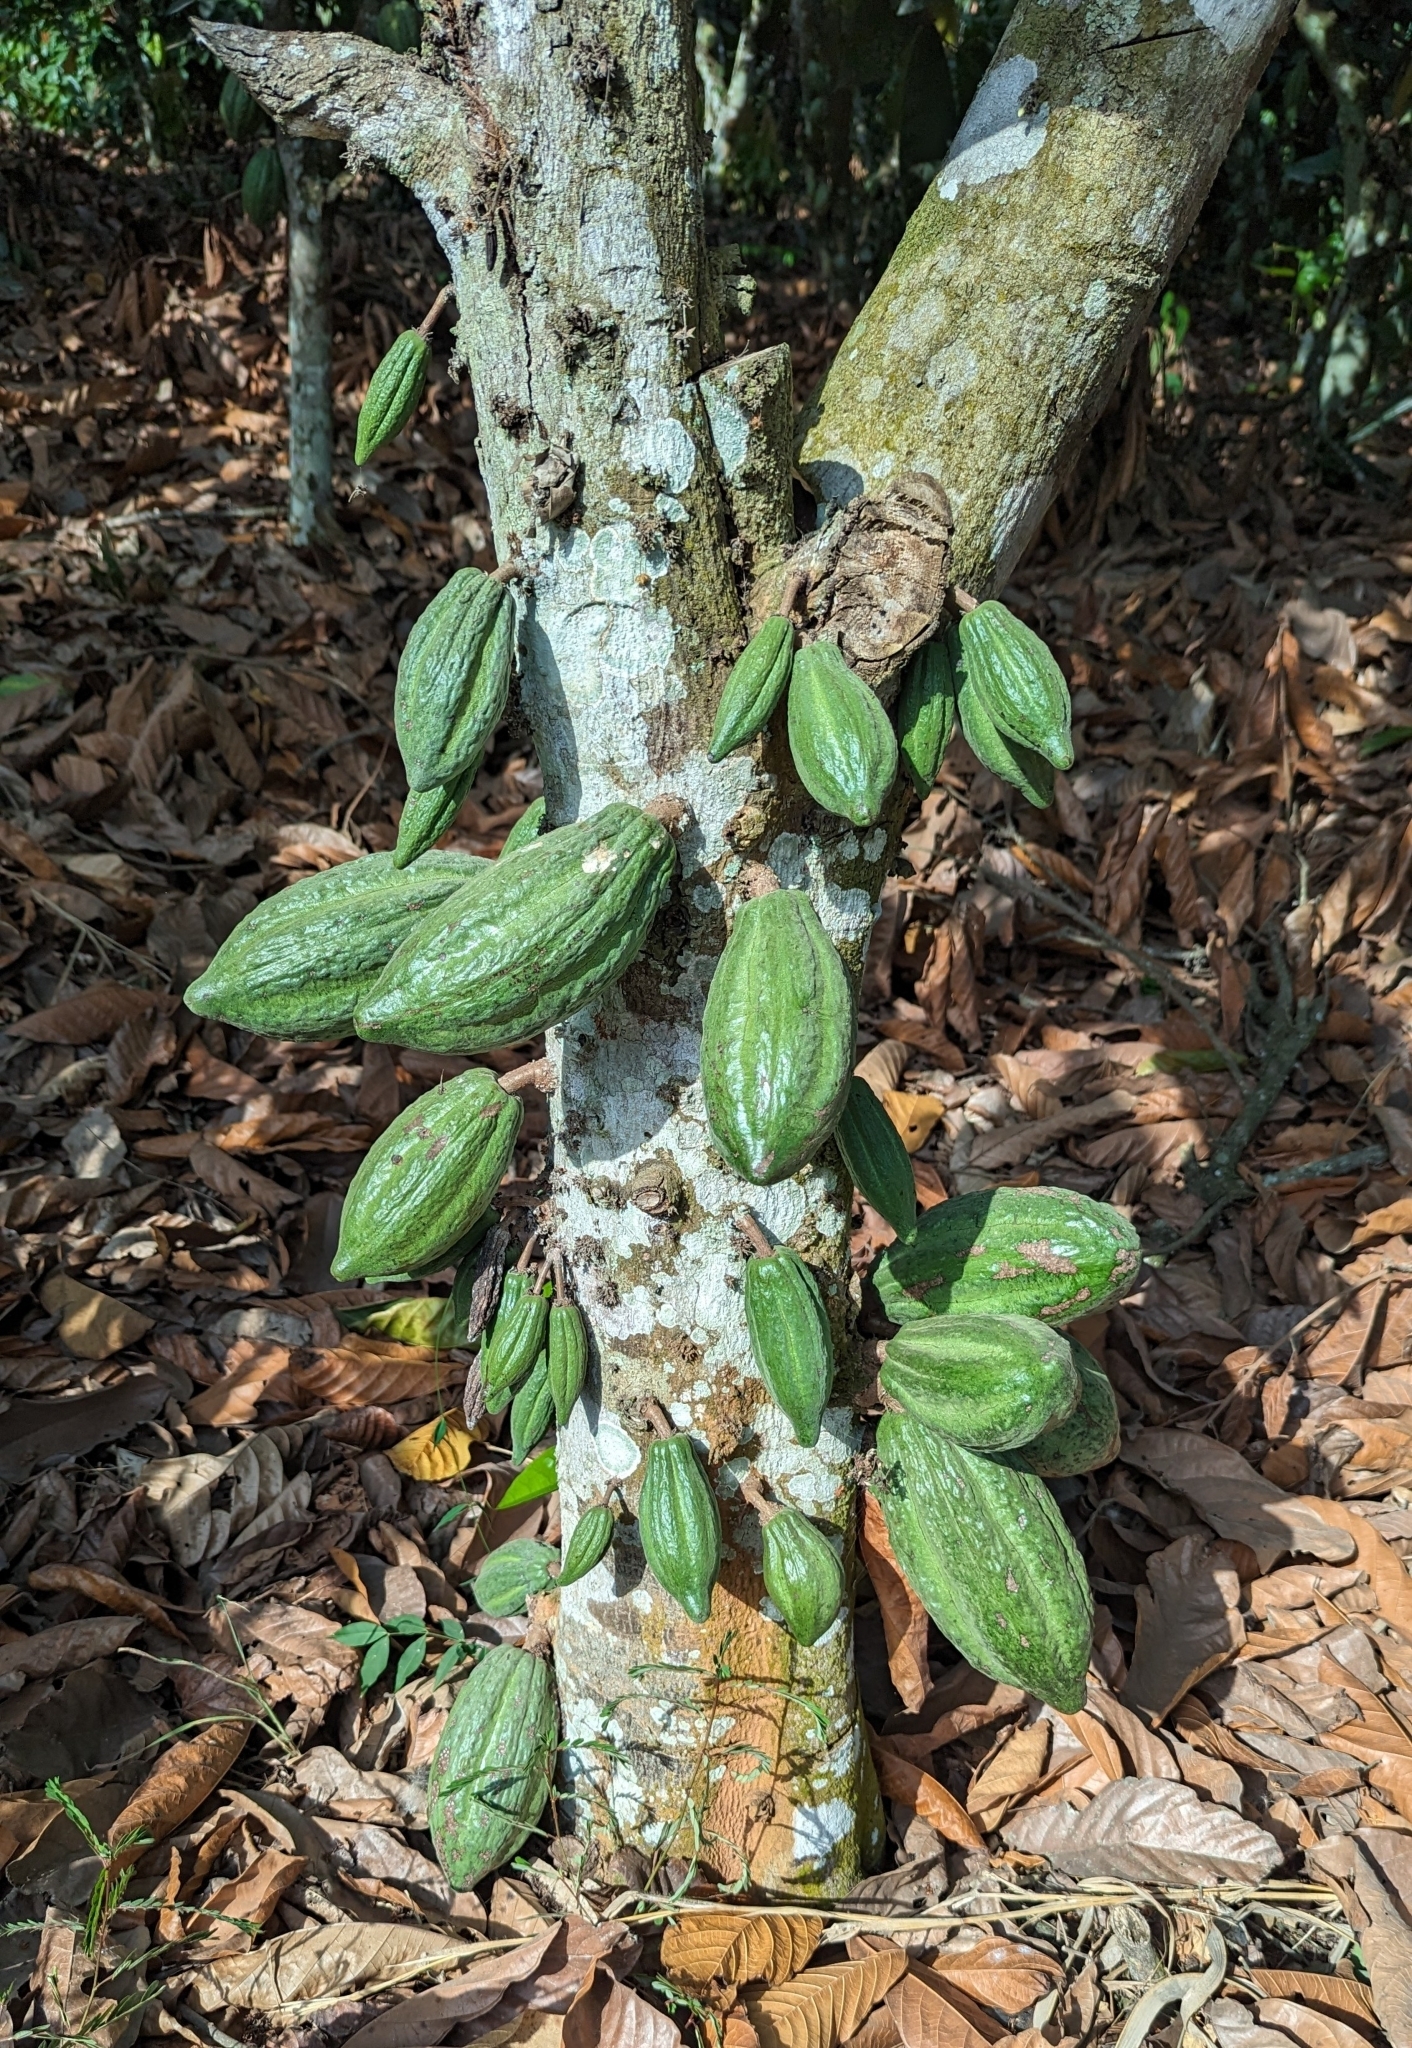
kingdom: Plantae
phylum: Tracheophyta
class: Magnoliopsida
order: Malvales
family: Malvaceae
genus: Theobroma
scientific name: Theobroma cacao
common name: Cocoa
